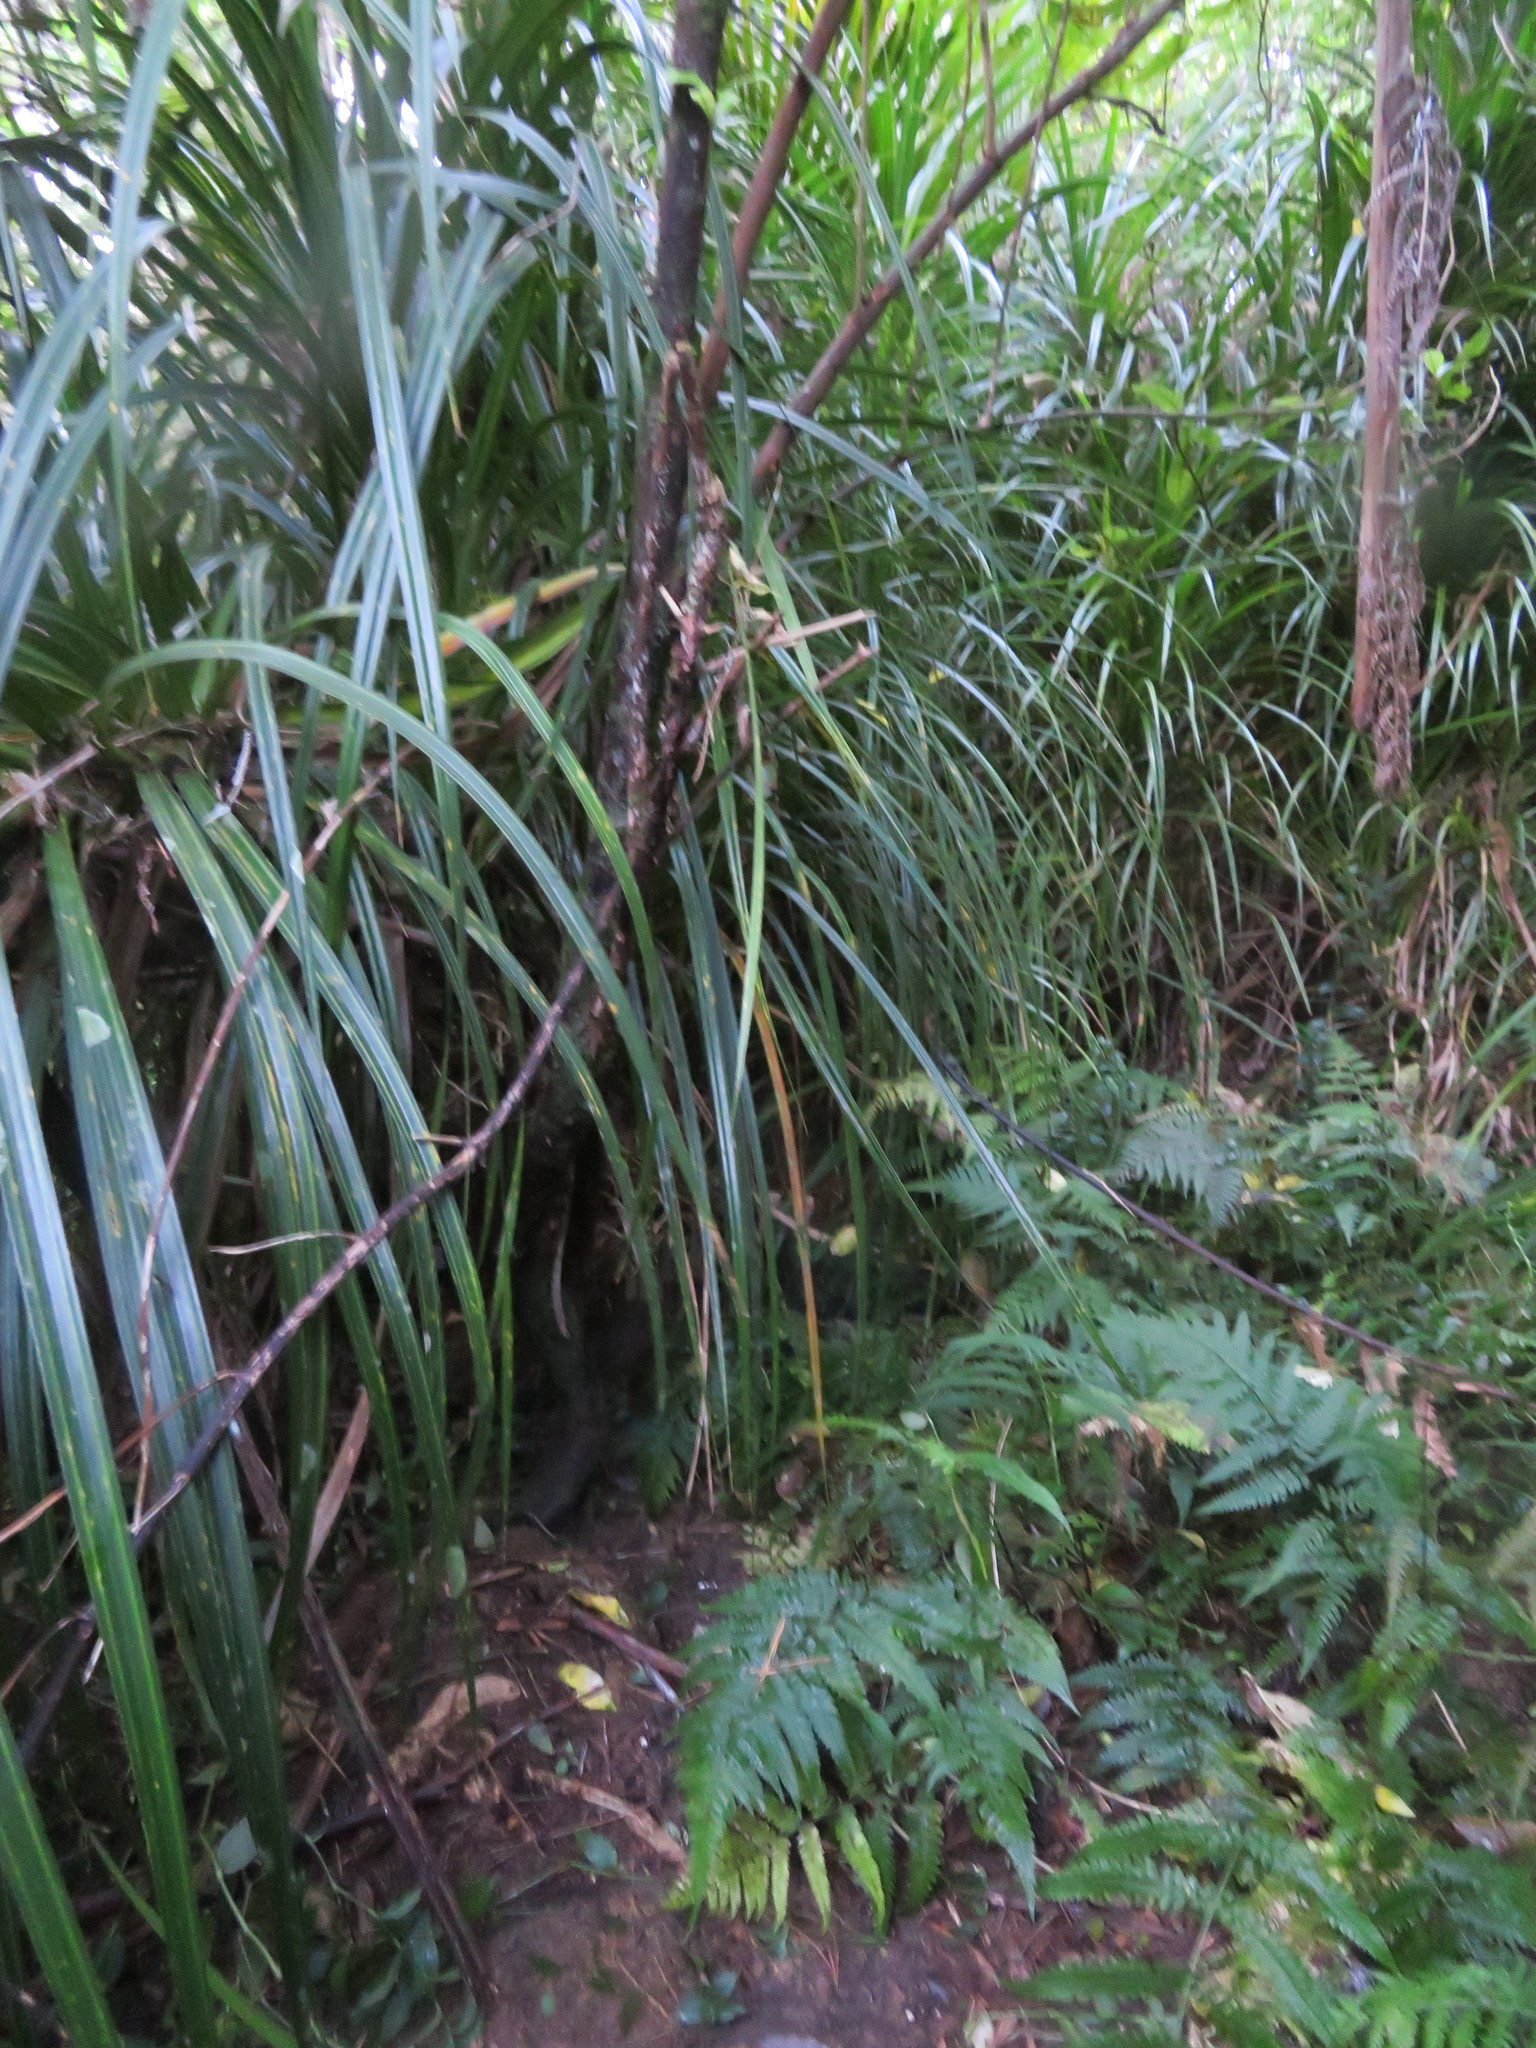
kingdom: Plantae
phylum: Tracheophyta
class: Liliopsida
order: Commelinales
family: Commelinaceae
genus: Tradescantia
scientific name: Tradescantia fluminensis
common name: Wandering-jew
